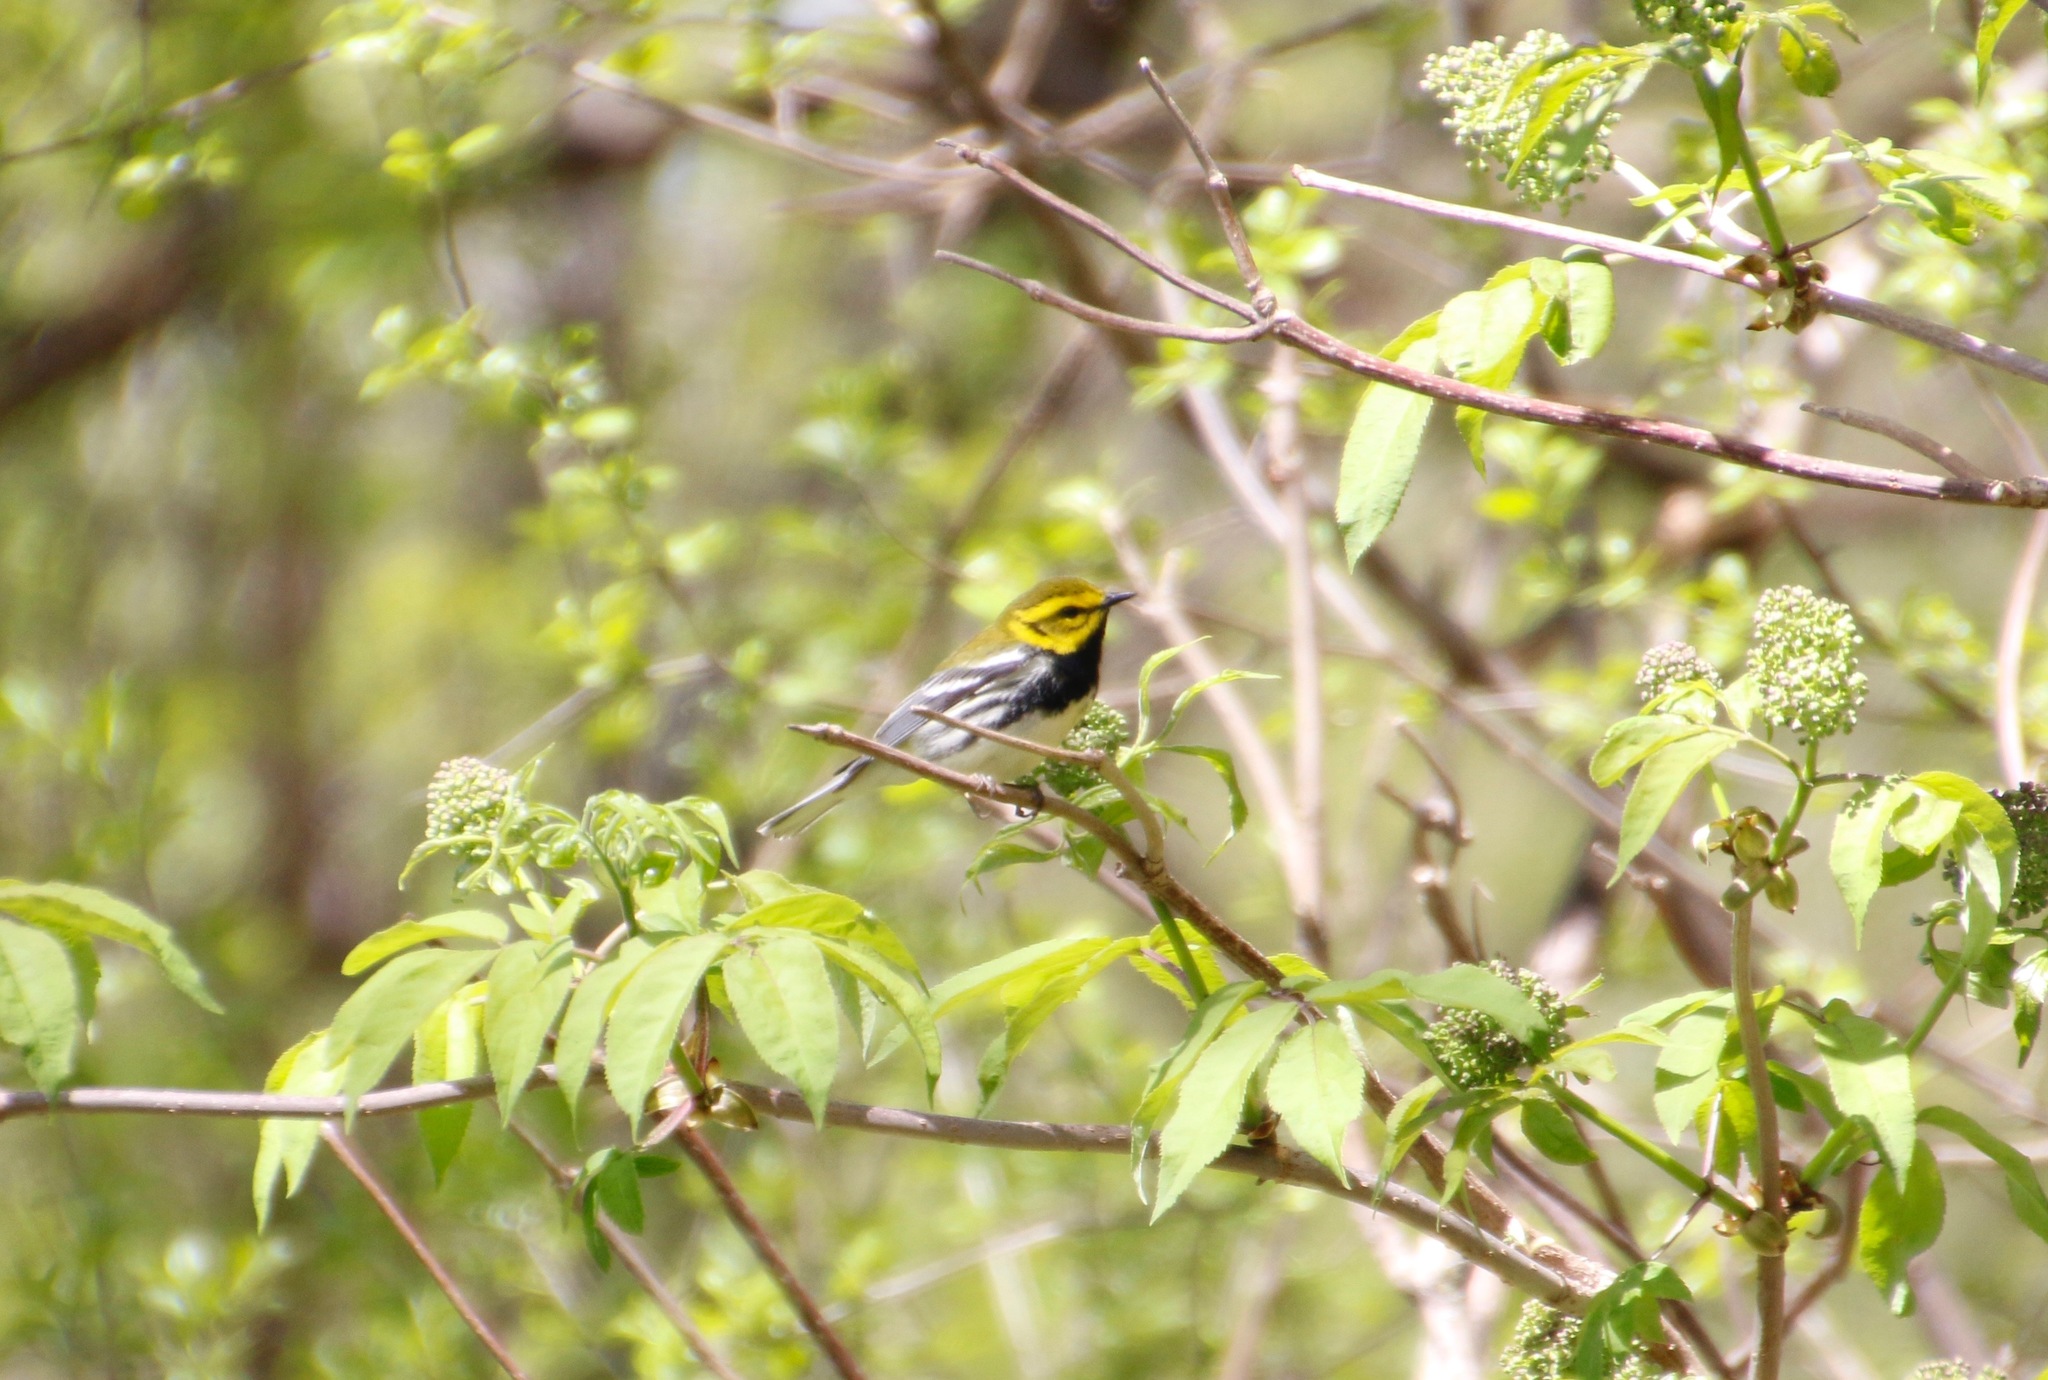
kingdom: Animalia
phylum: Chordata
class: Aves
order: Passeriformes
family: Parulidae
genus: Setophaga
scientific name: Setophaga virens
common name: Black-throated green warbler
